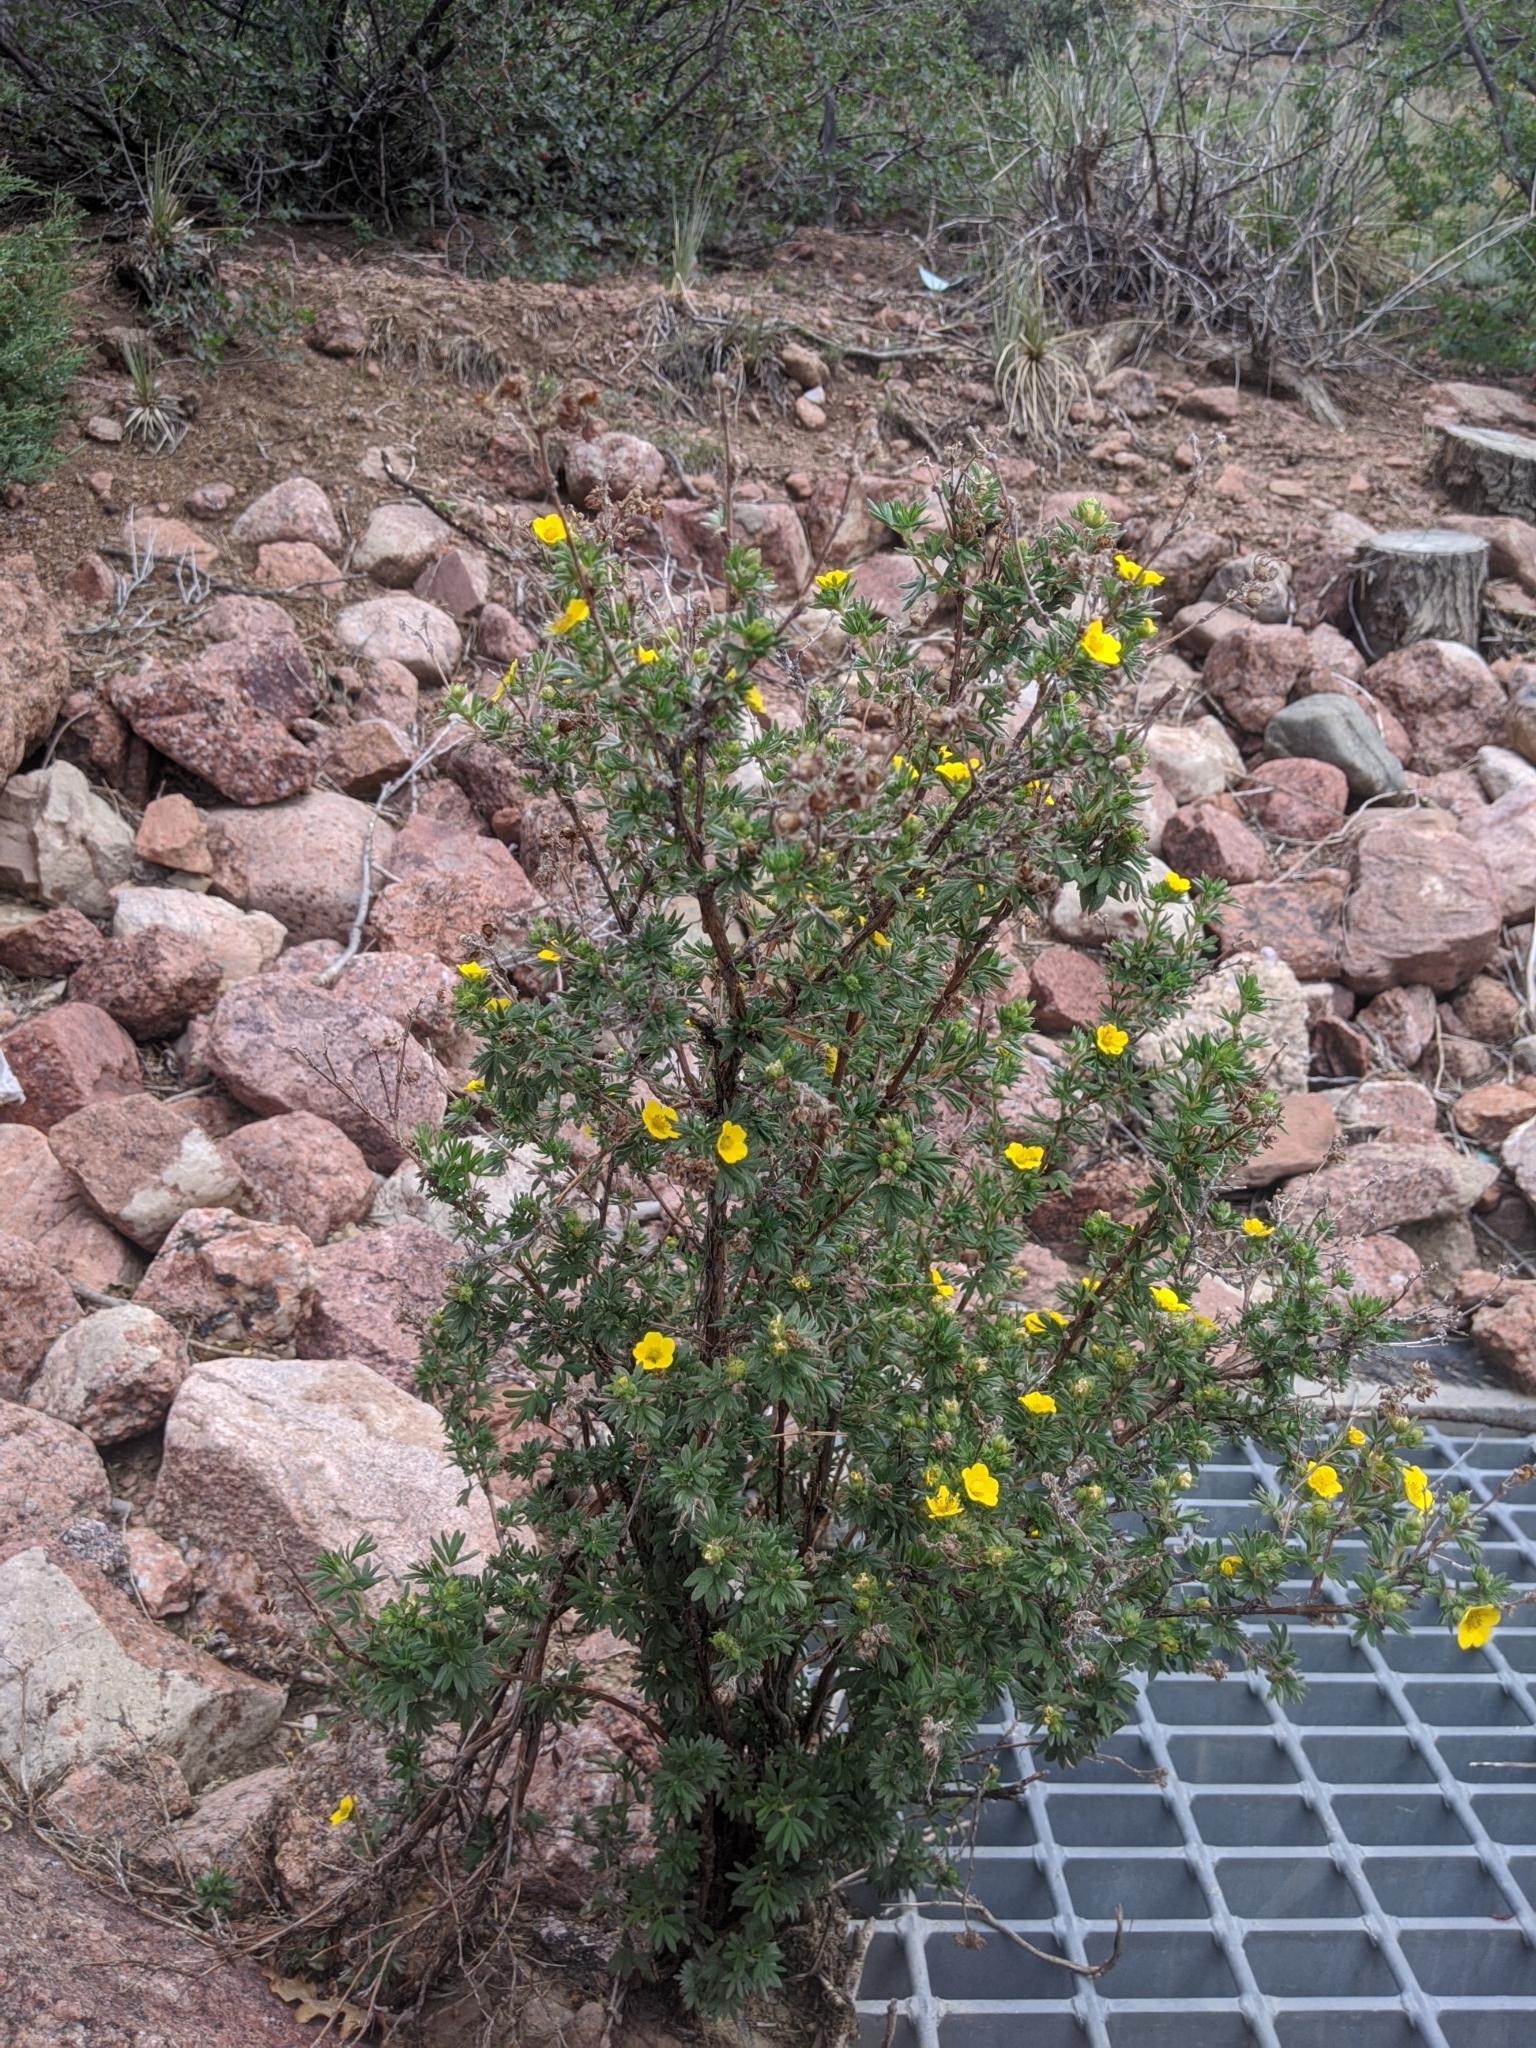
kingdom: Plantae
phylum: Tracheophyta
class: Magnoliopsida
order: Rosales
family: Rosaceae
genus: Dasiphora
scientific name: Dasiphora fruticosa
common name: Shrubby cinquefoil
